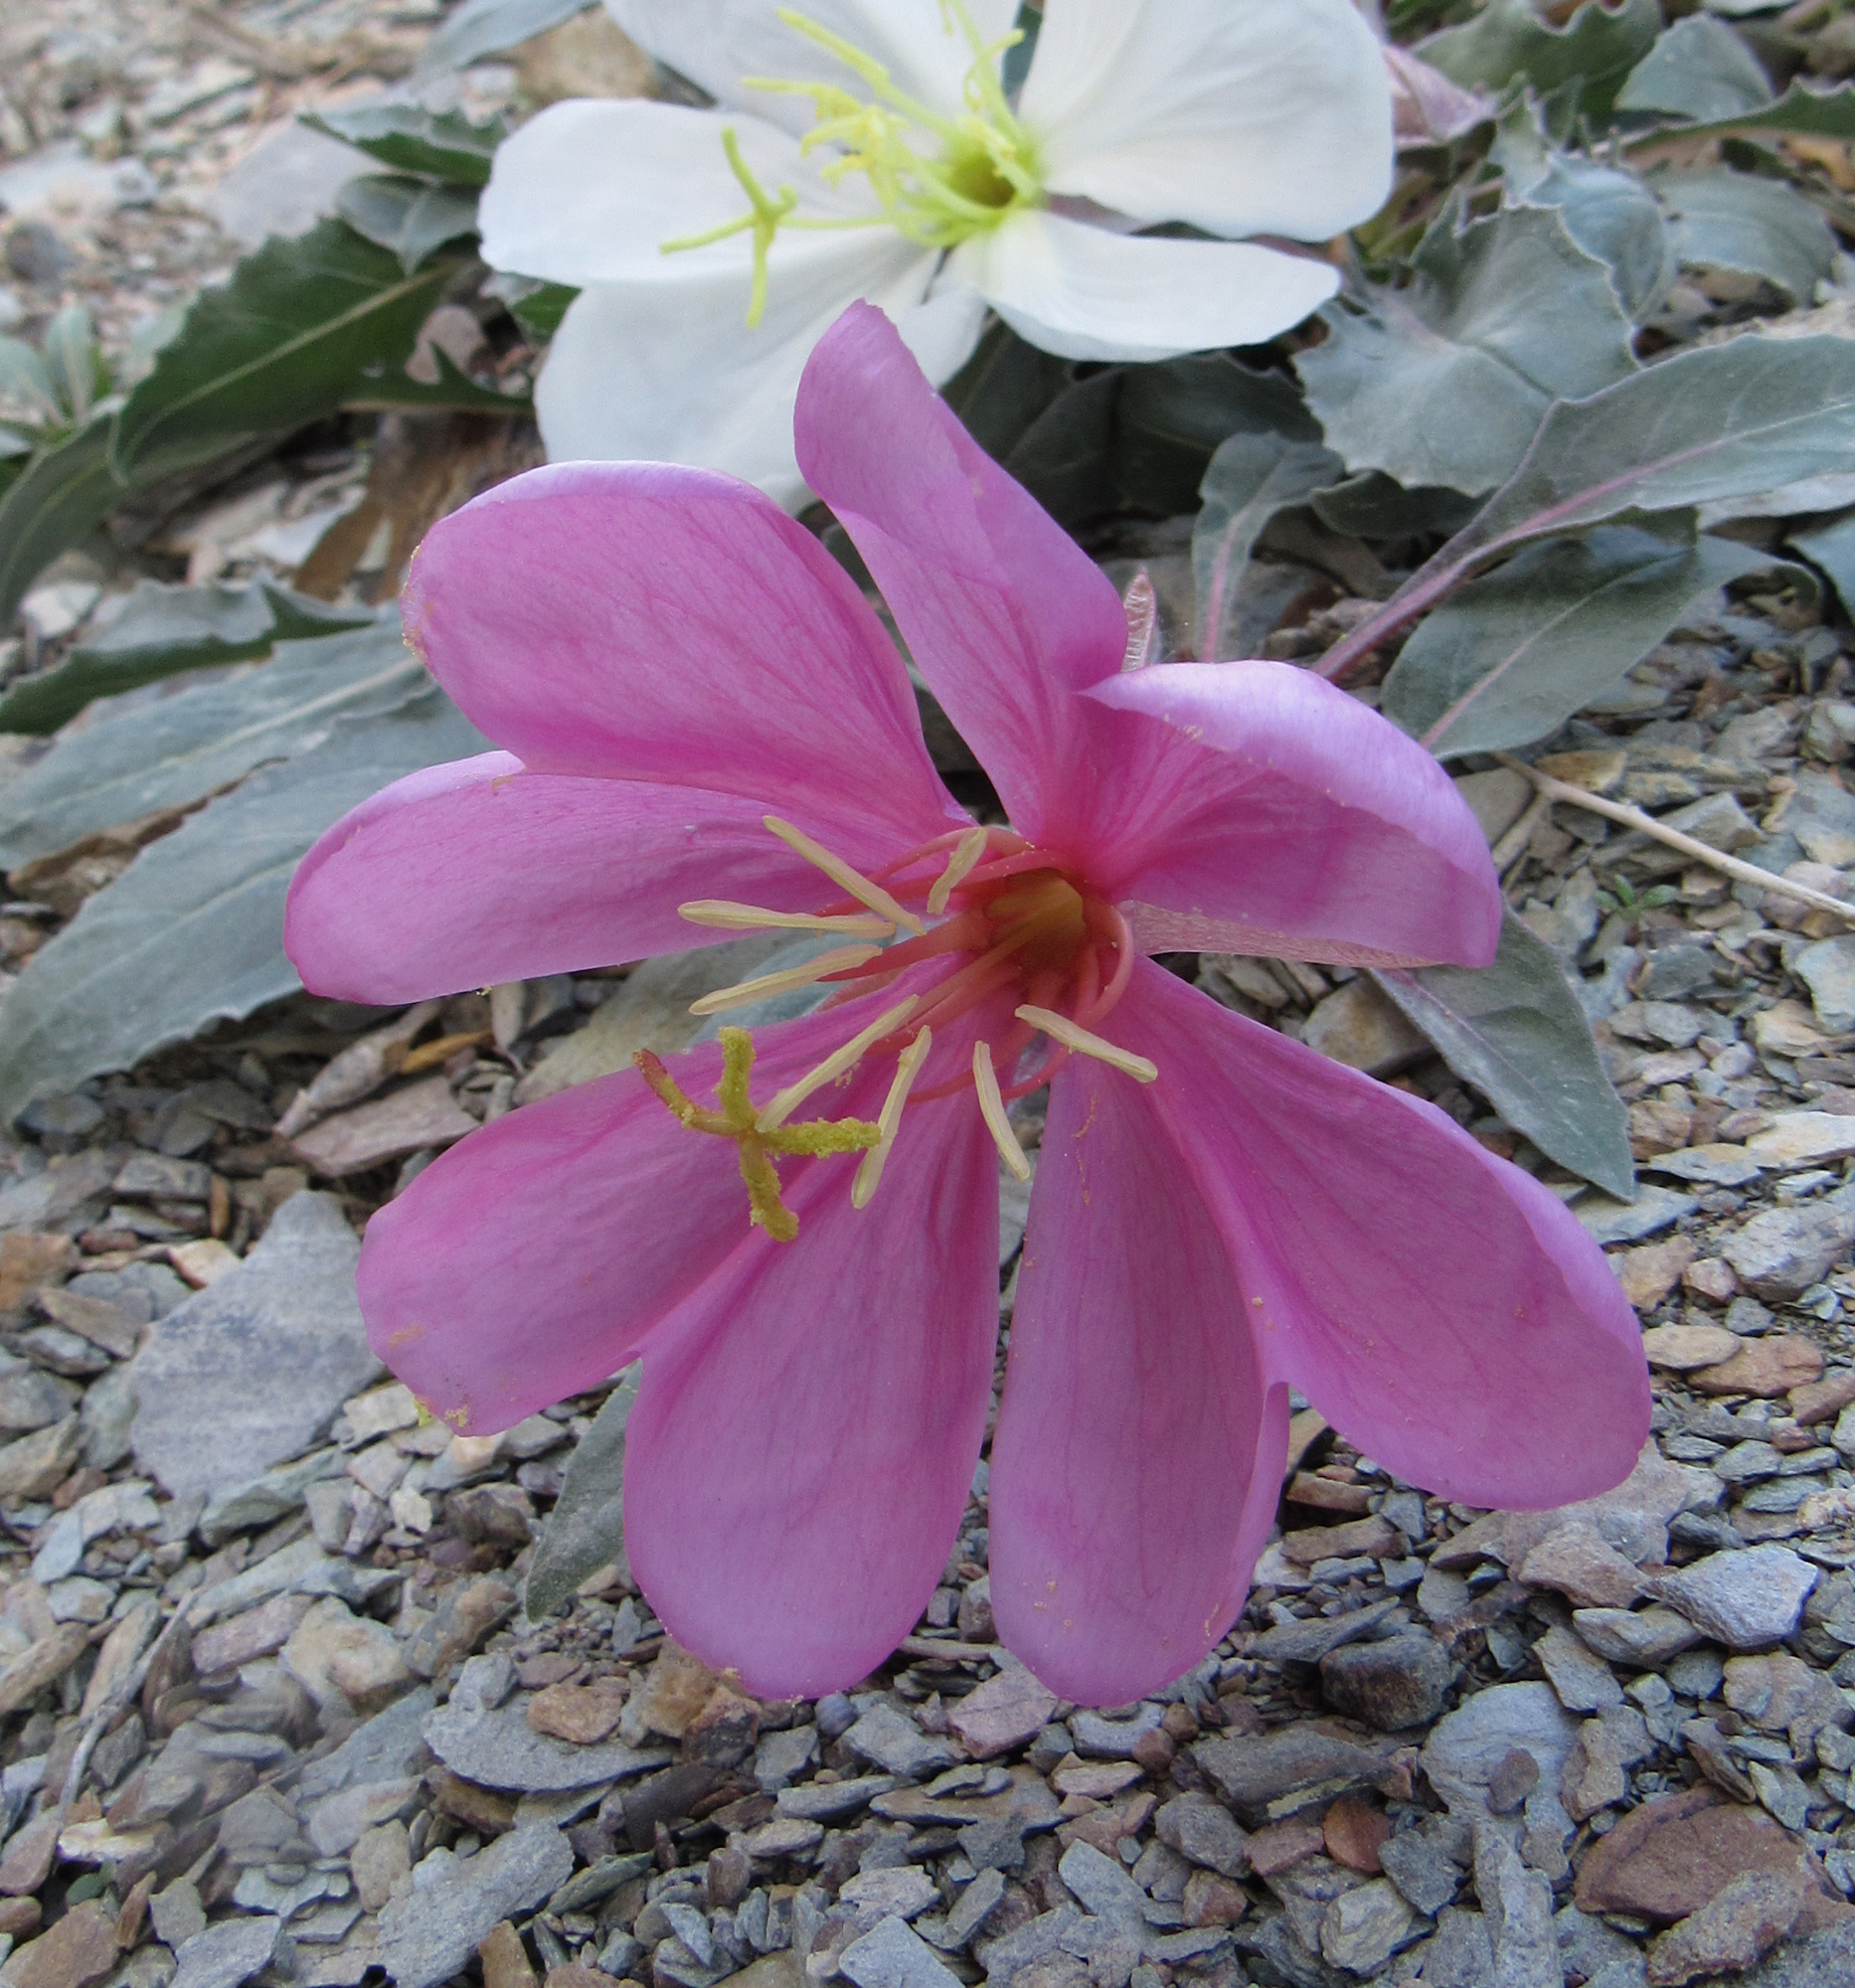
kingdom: Plantae
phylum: Tracheophyta
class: Magnoliopsida
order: Myrtales
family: Onagraceae
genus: Oenothera
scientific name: Oenothera cespitosa
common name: Tufted evening-primrose
